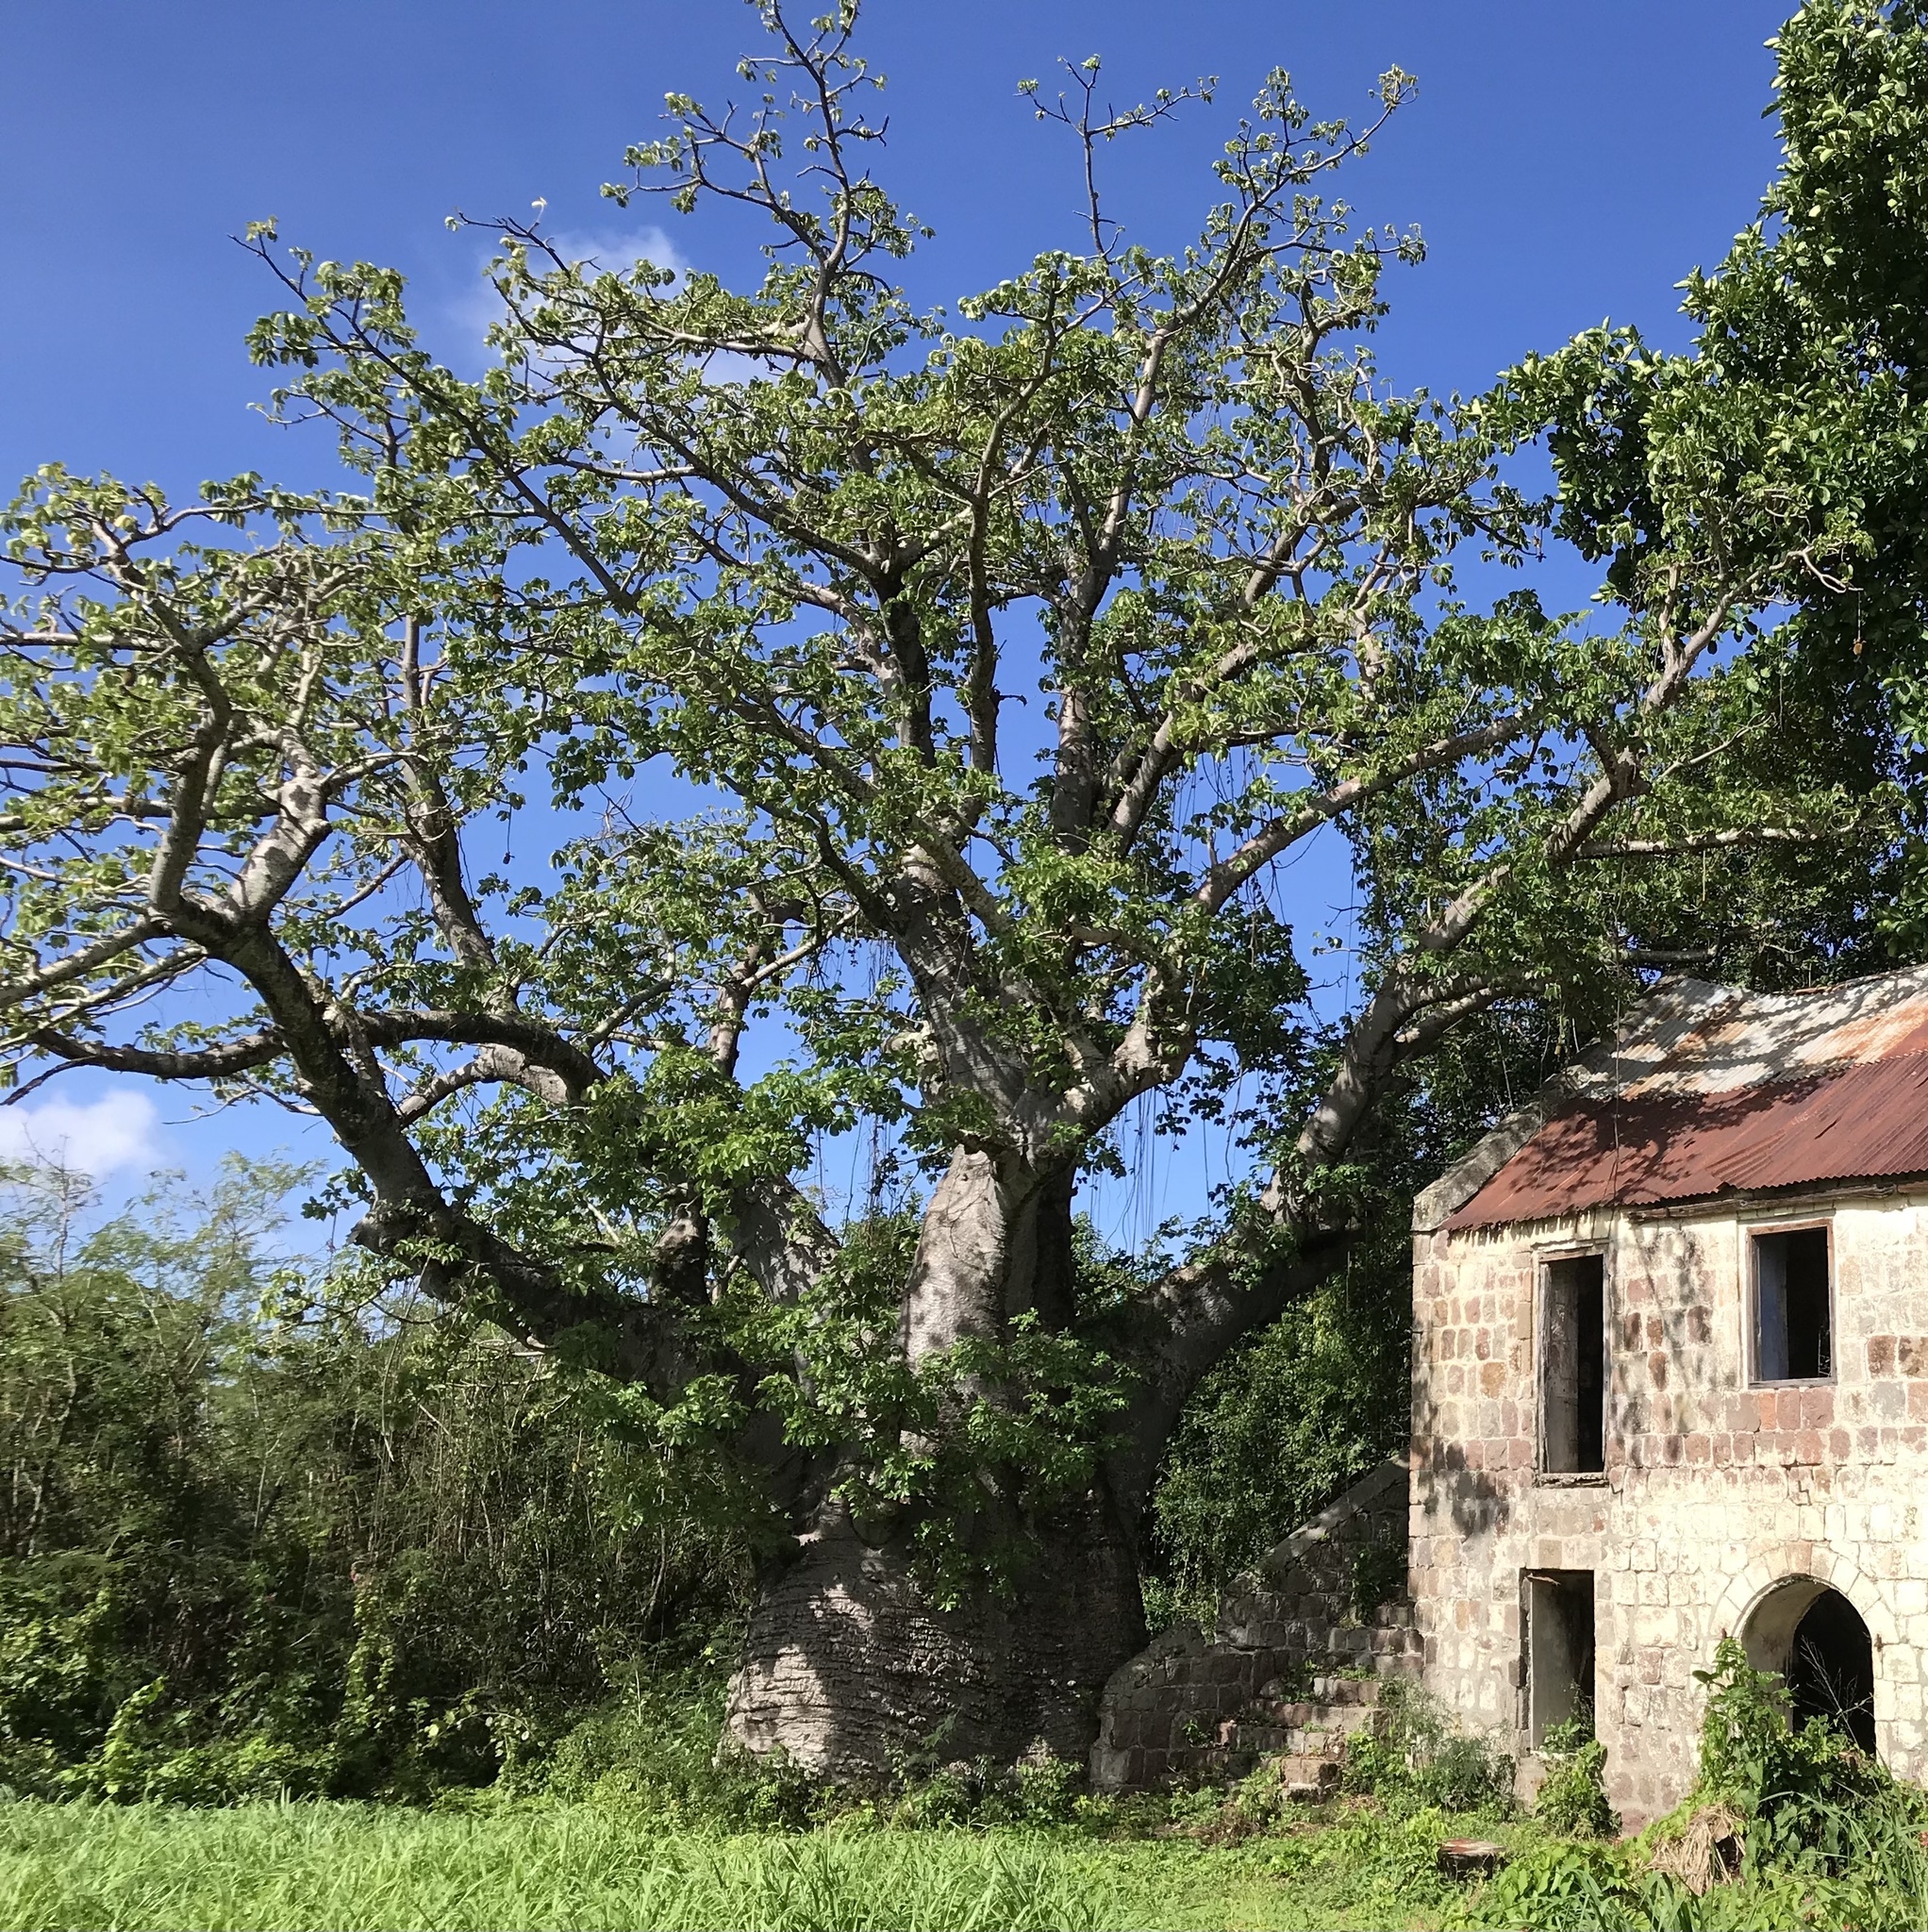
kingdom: Plantae
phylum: Tracheophyta
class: Magnoliopsida
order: Malvales
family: Malvaceae
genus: Adansonia
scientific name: Adansonia digitata
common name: Dead-rat-tree
